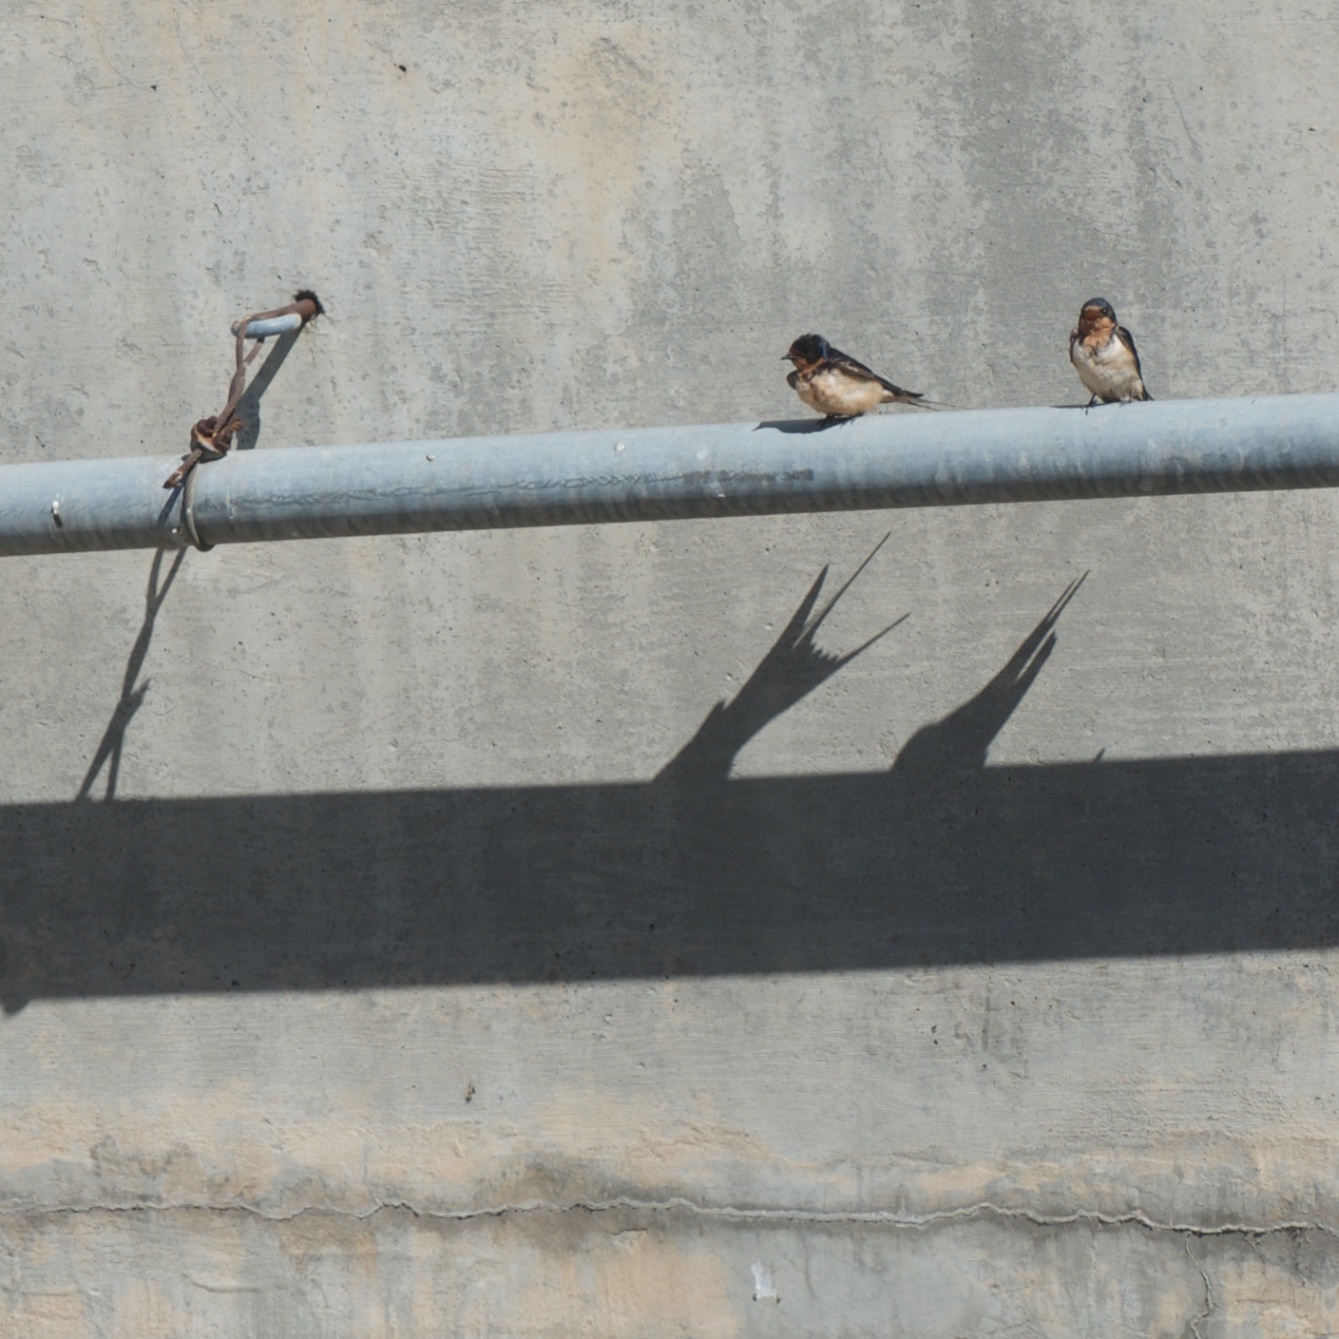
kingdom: Animalia
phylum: Chordata
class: Aves
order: Passeriformes
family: Hirundinidae
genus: Hirundo
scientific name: Hirundo rustica
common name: Barn swallow
